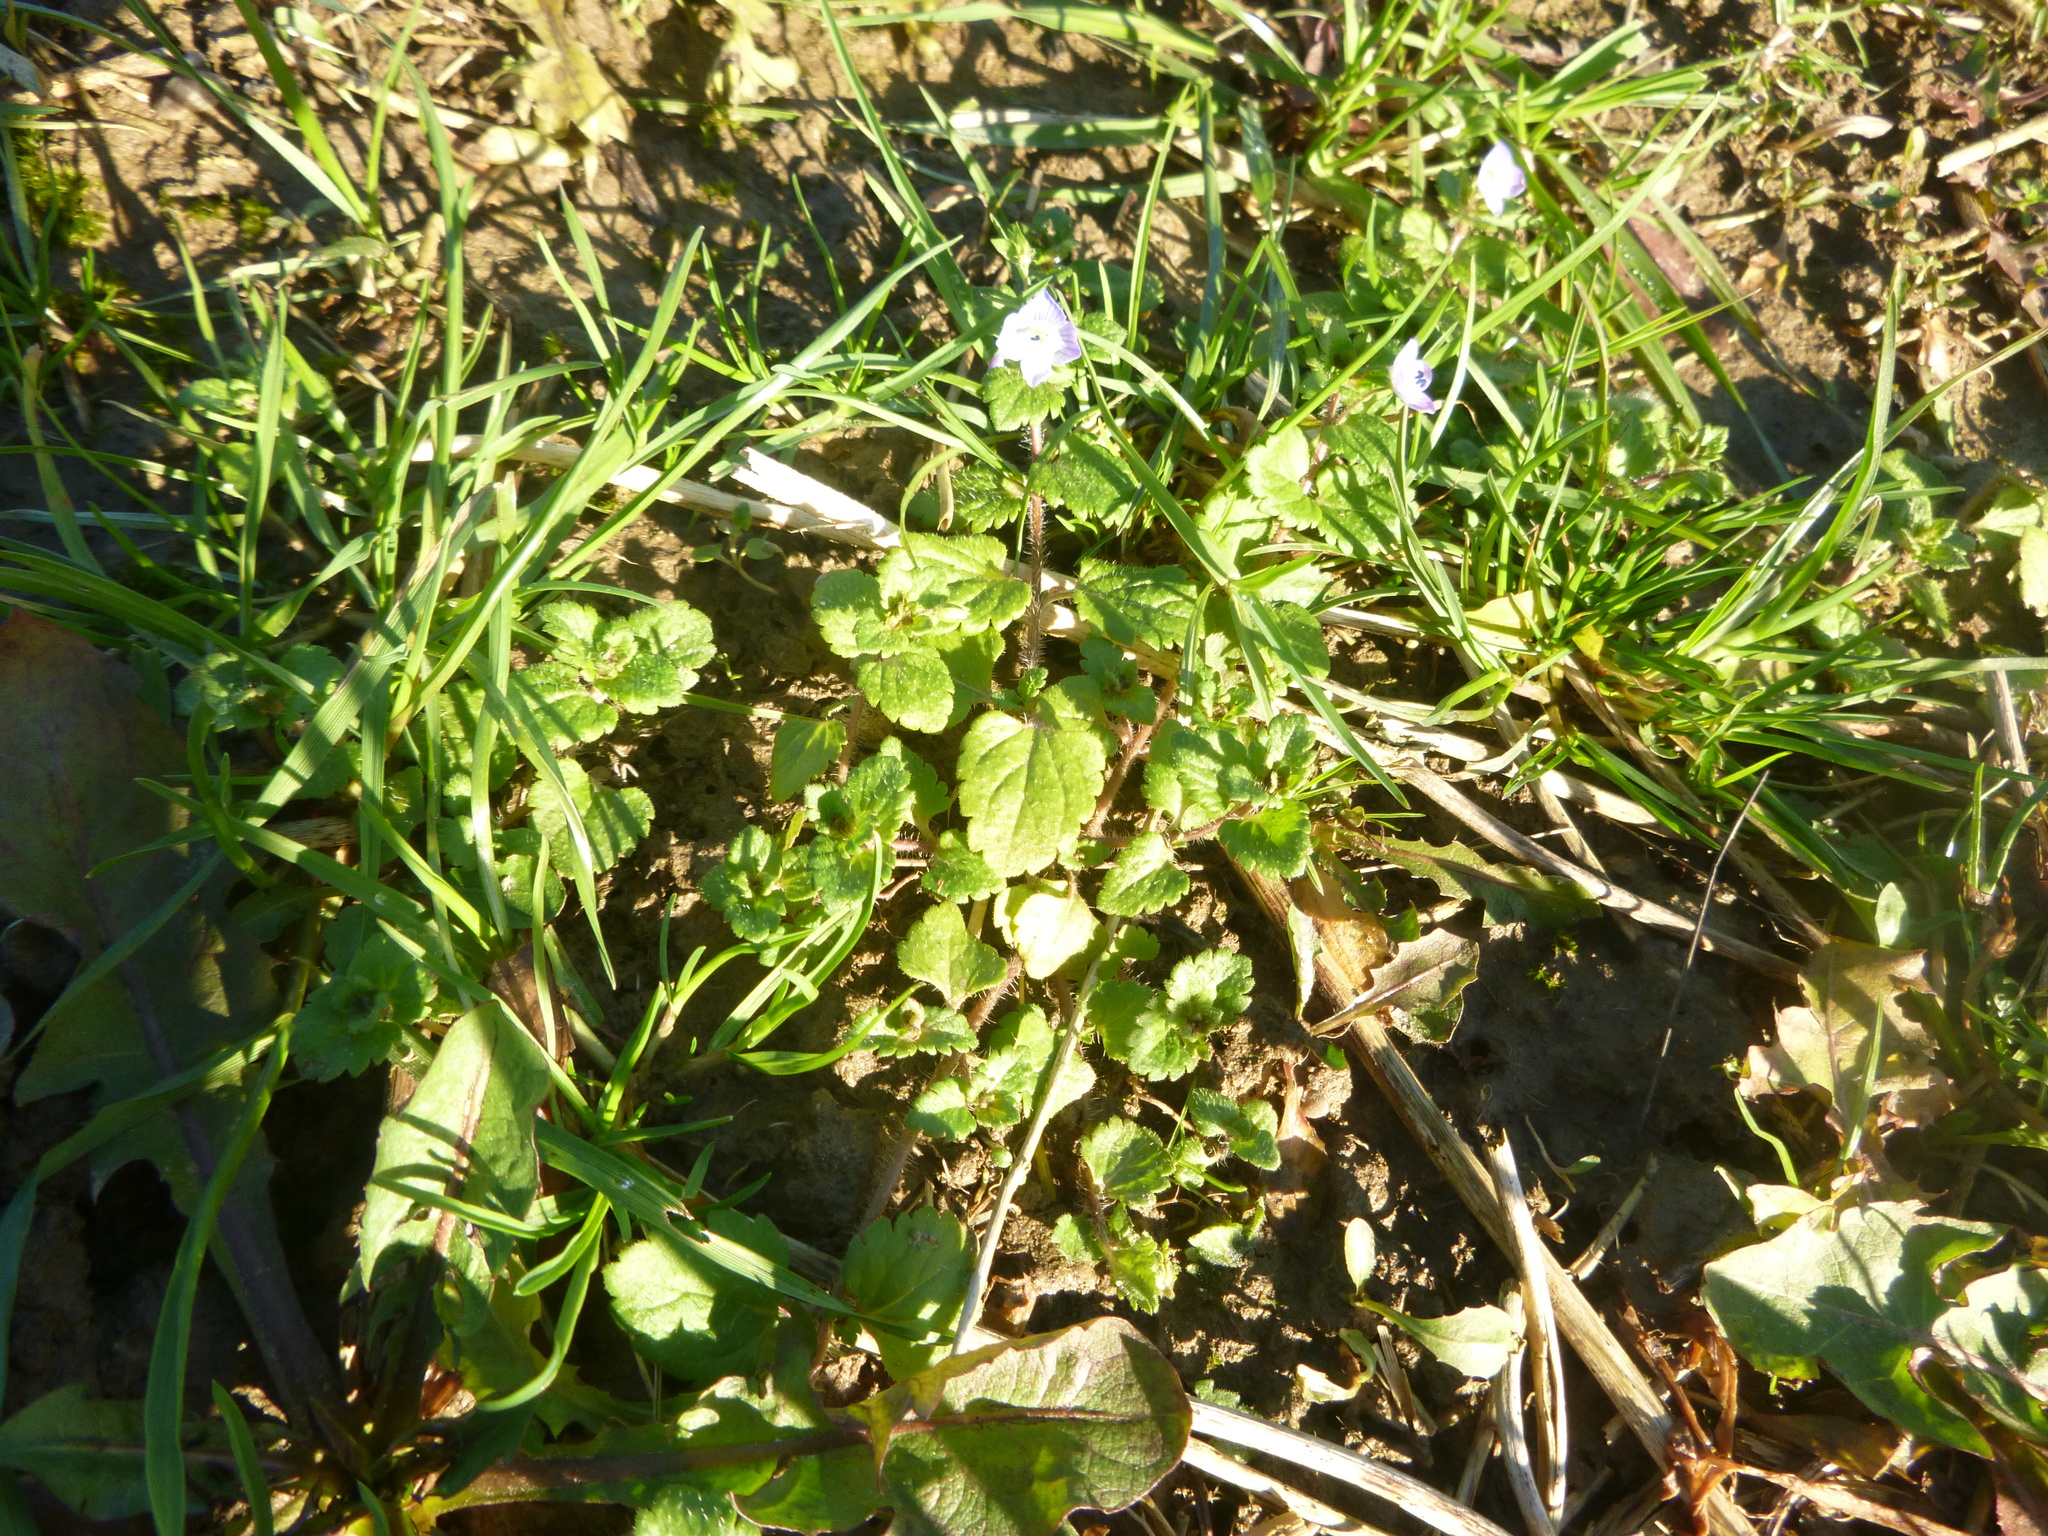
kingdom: Plantae
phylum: Tracheophyta
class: Magnoliopsida
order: Lamiales
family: Plantaginaceae
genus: Veronica
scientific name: Veronica persica
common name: Common field-speedwell
